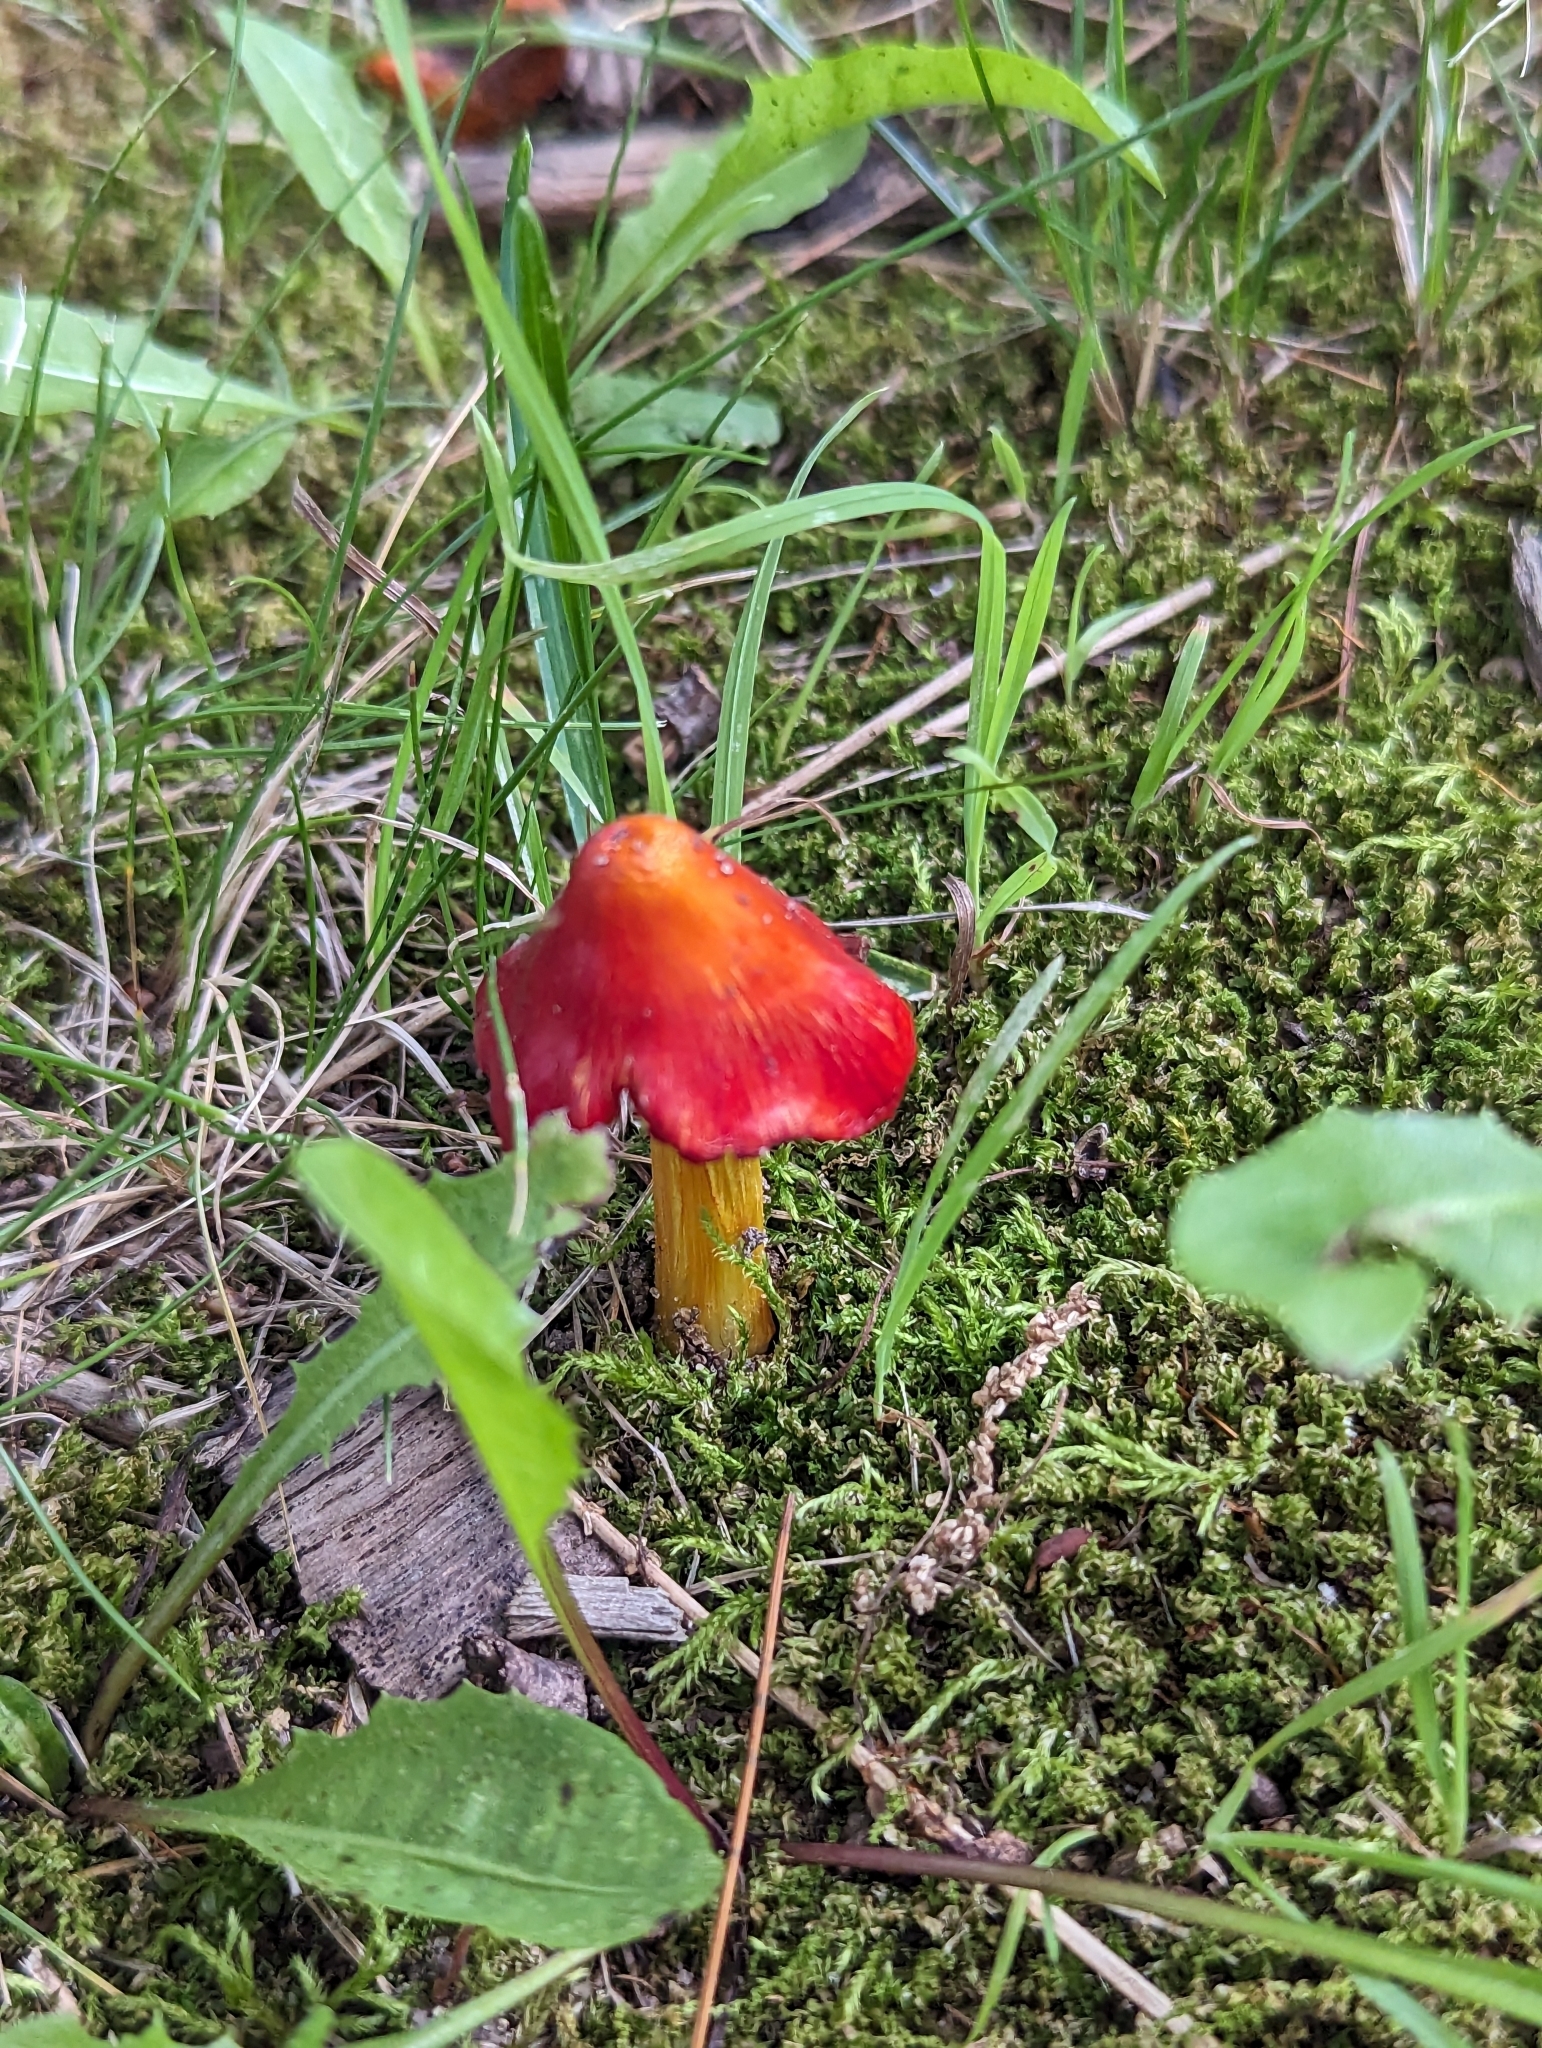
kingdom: Fungi
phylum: Basidiomycota
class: Agaricomycetes
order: Agaricales
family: Hygrophoraceae
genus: Hygrocybe
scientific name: Hygrocybe cuspidata
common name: Candy apple waxy cap
